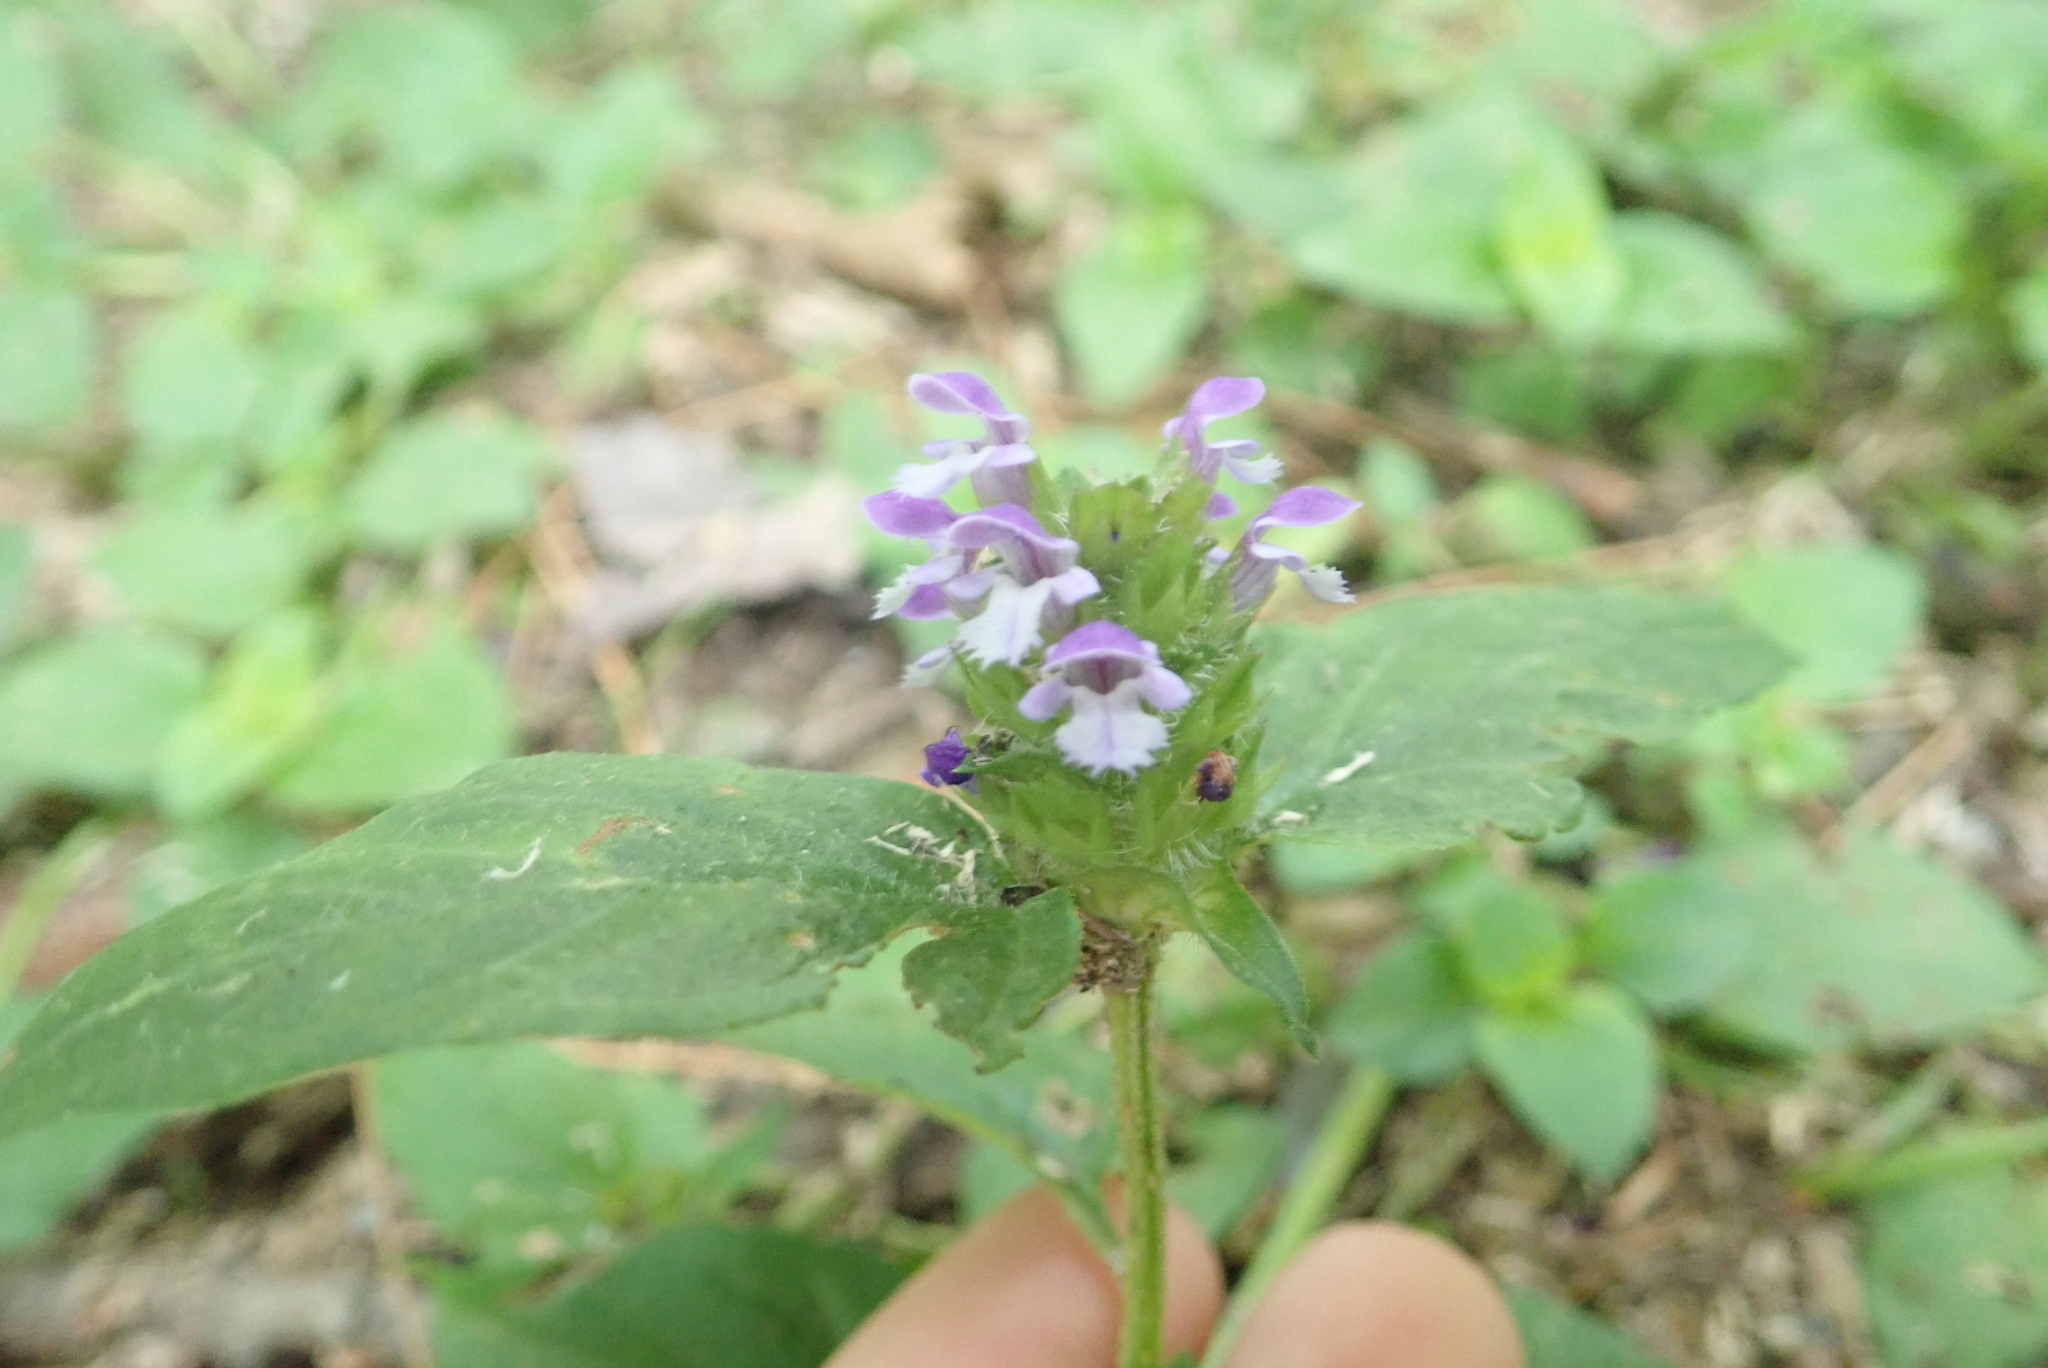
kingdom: Plantae
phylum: Tracheophyta
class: Magnoliopsida
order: Lamiales
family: Lamiaceae
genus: Prunella
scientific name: Prunella vulgaris
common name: Heal-all
